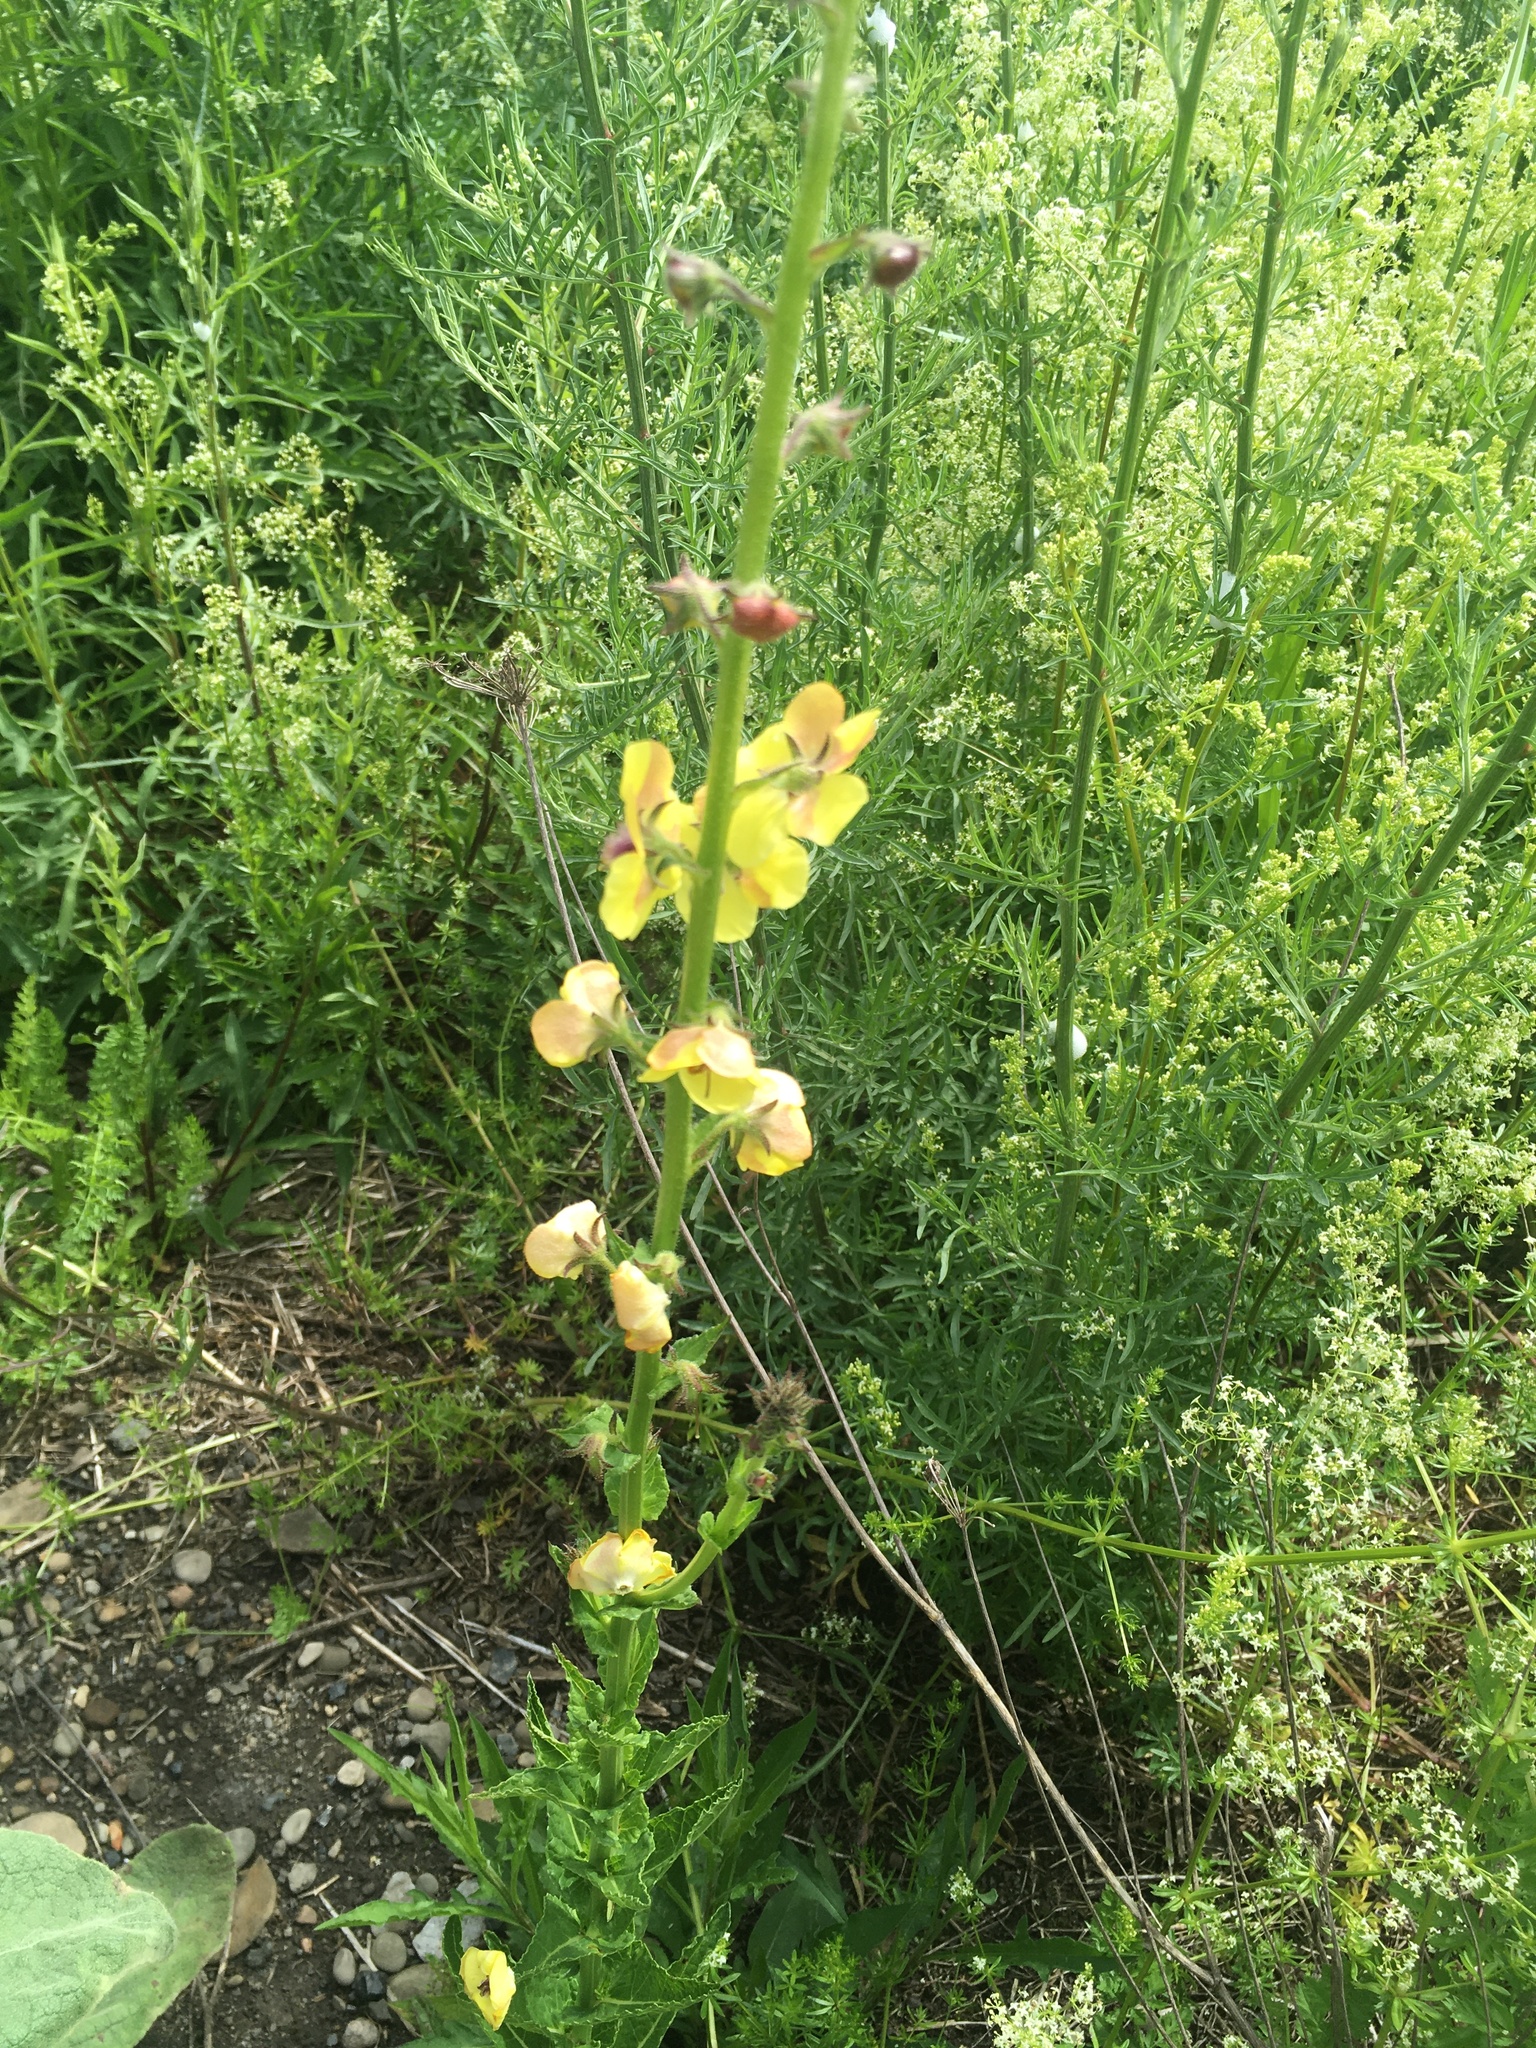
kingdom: Plantae
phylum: Tracheophyta
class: Magnoliopsida
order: Lamiales
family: Scrophulariaceae
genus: Verbascum
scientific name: Verbascum blattaria
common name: Moth mullein
